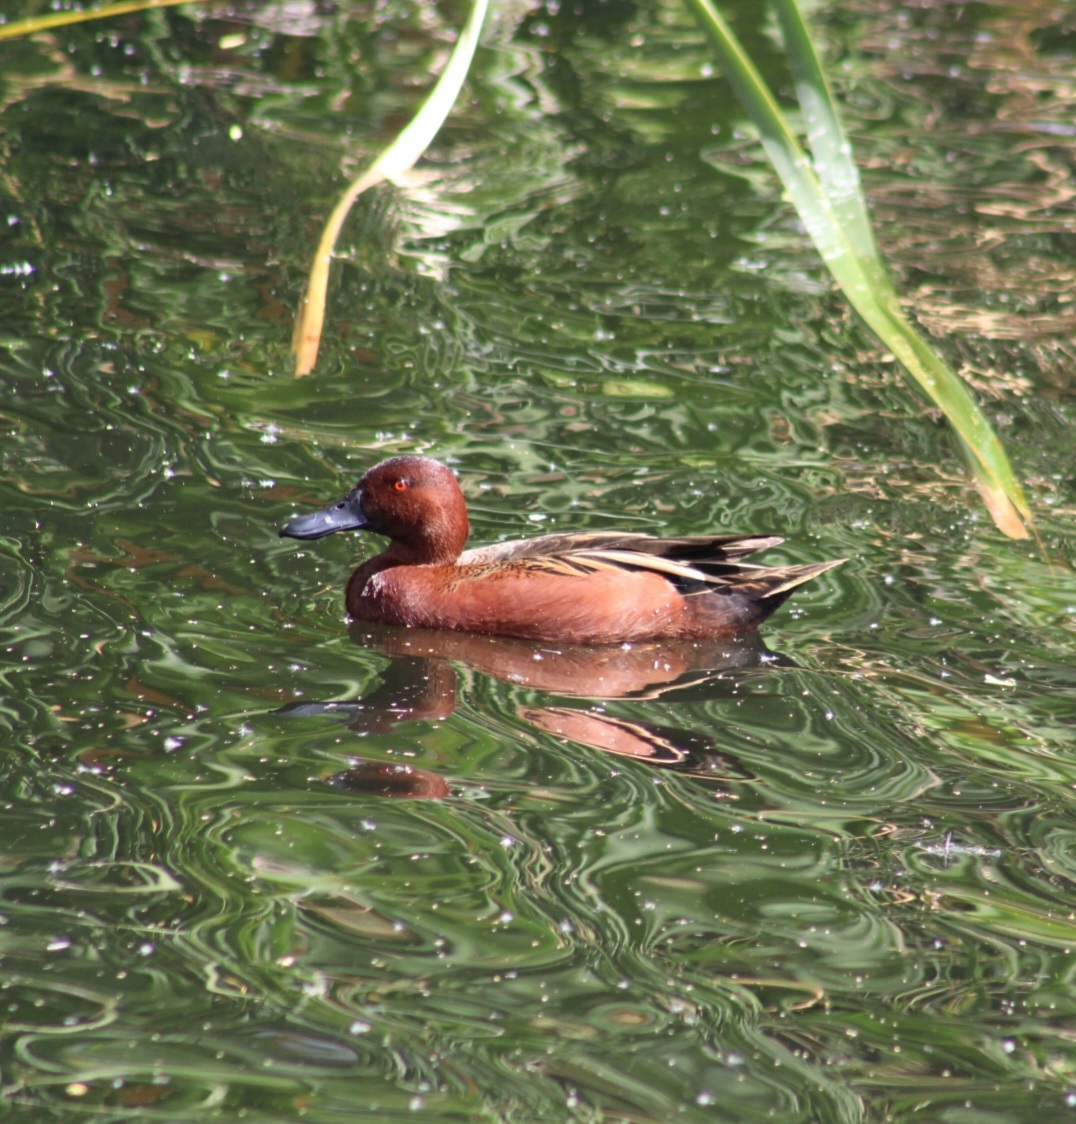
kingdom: Animalia
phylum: Chordata
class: Aves
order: Anseriformes
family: Anatidae
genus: Spatula
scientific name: Spatula cyanoptera
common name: Cinnamon teal
